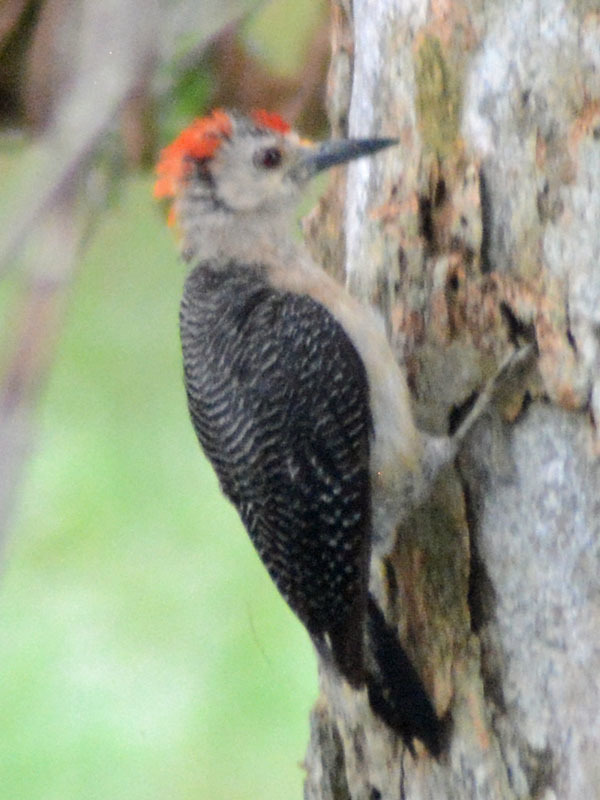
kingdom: Animalia
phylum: Chordata
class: Aves
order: Piciformes
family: Picidae
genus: Melanerpes
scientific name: Melanerpes aurifrons
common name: Golden-fronted woodpecker
